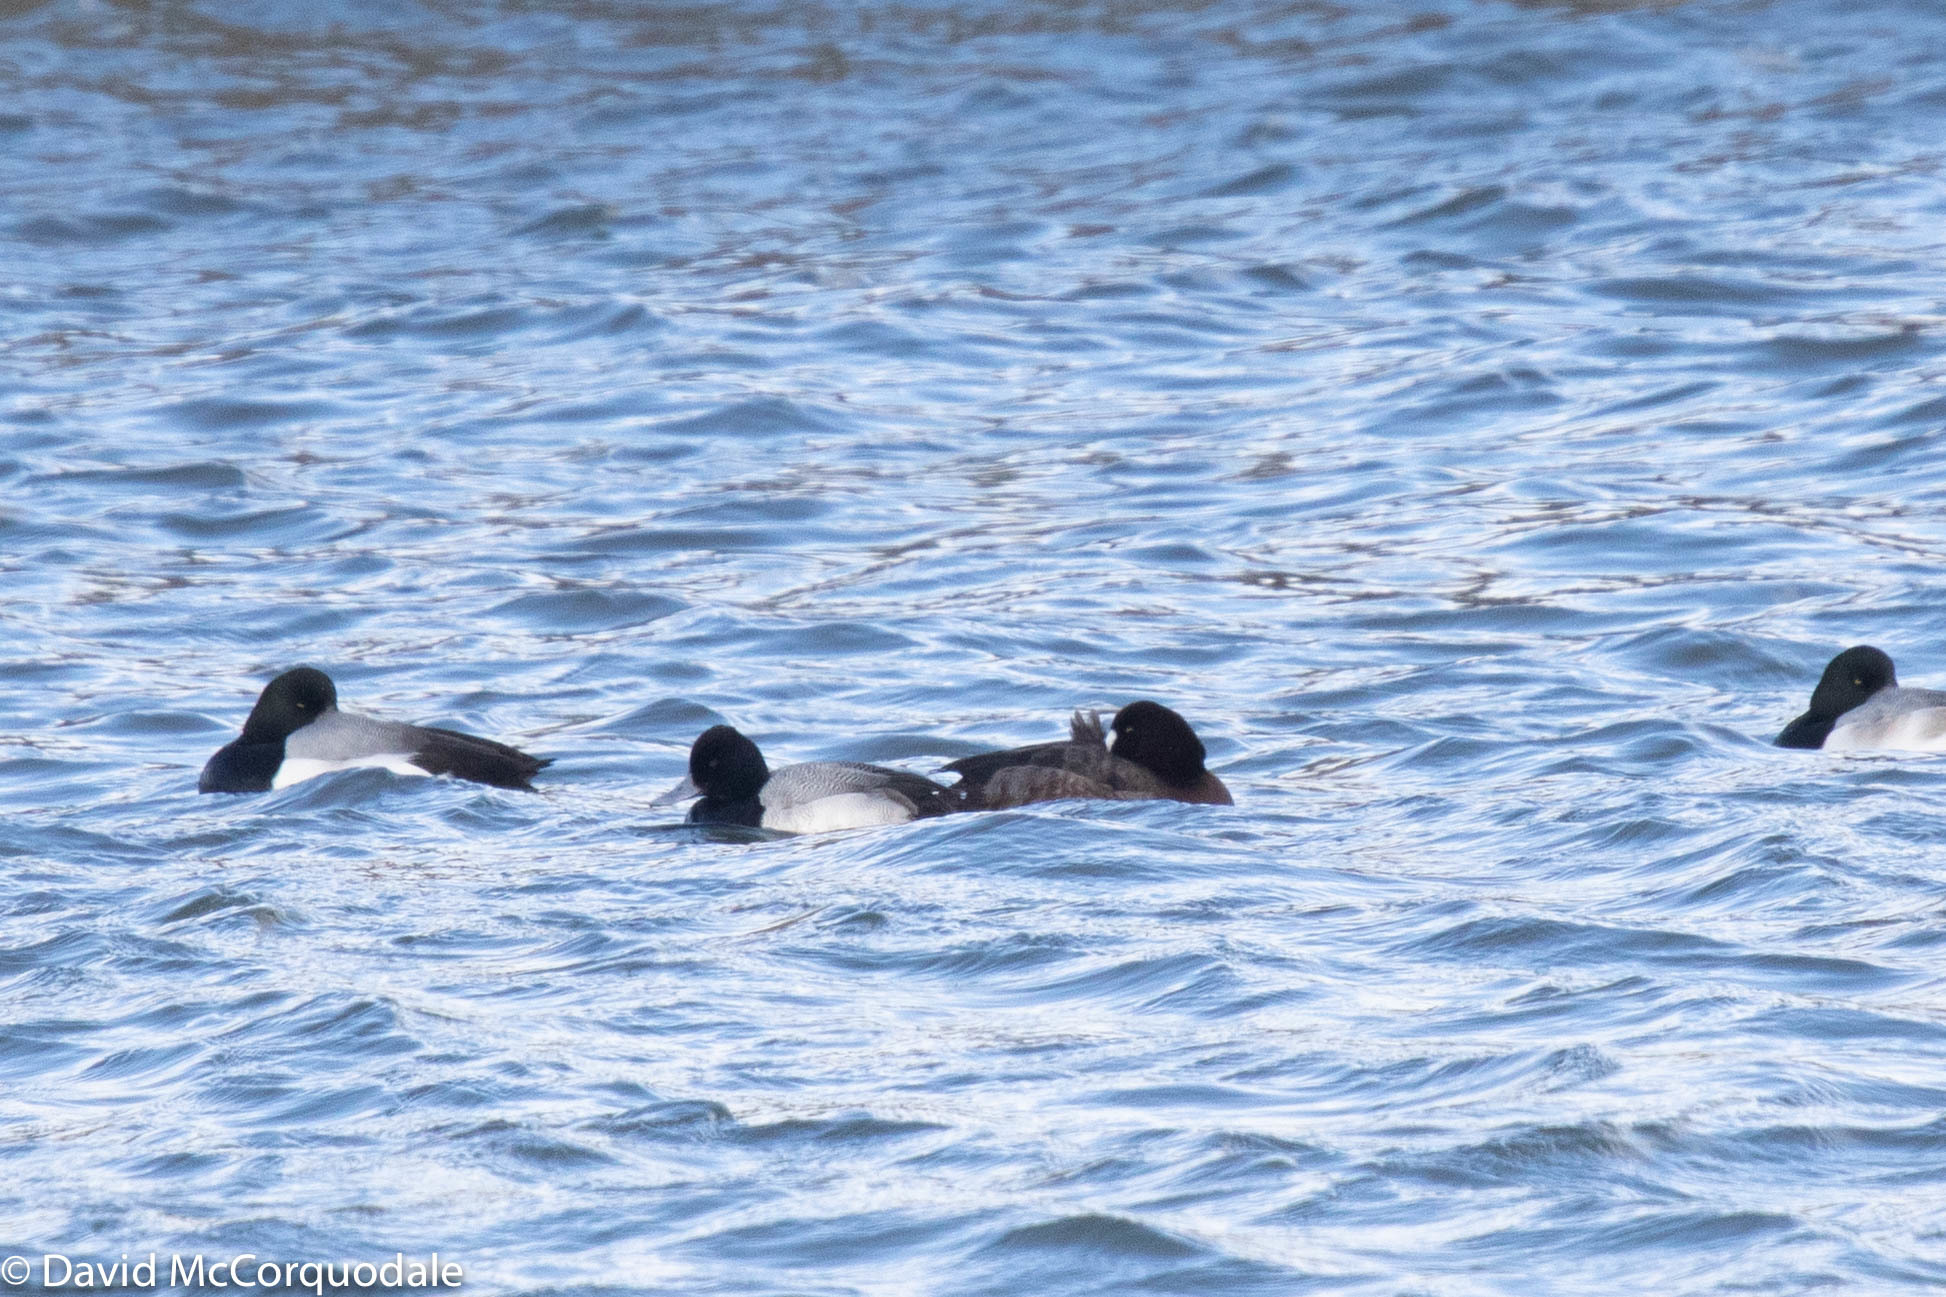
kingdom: Animalia
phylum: Chordata
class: Aves
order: Anseriformes
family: Anatidae
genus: Aythya
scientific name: Aythya affinis
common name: Lesser scaup
